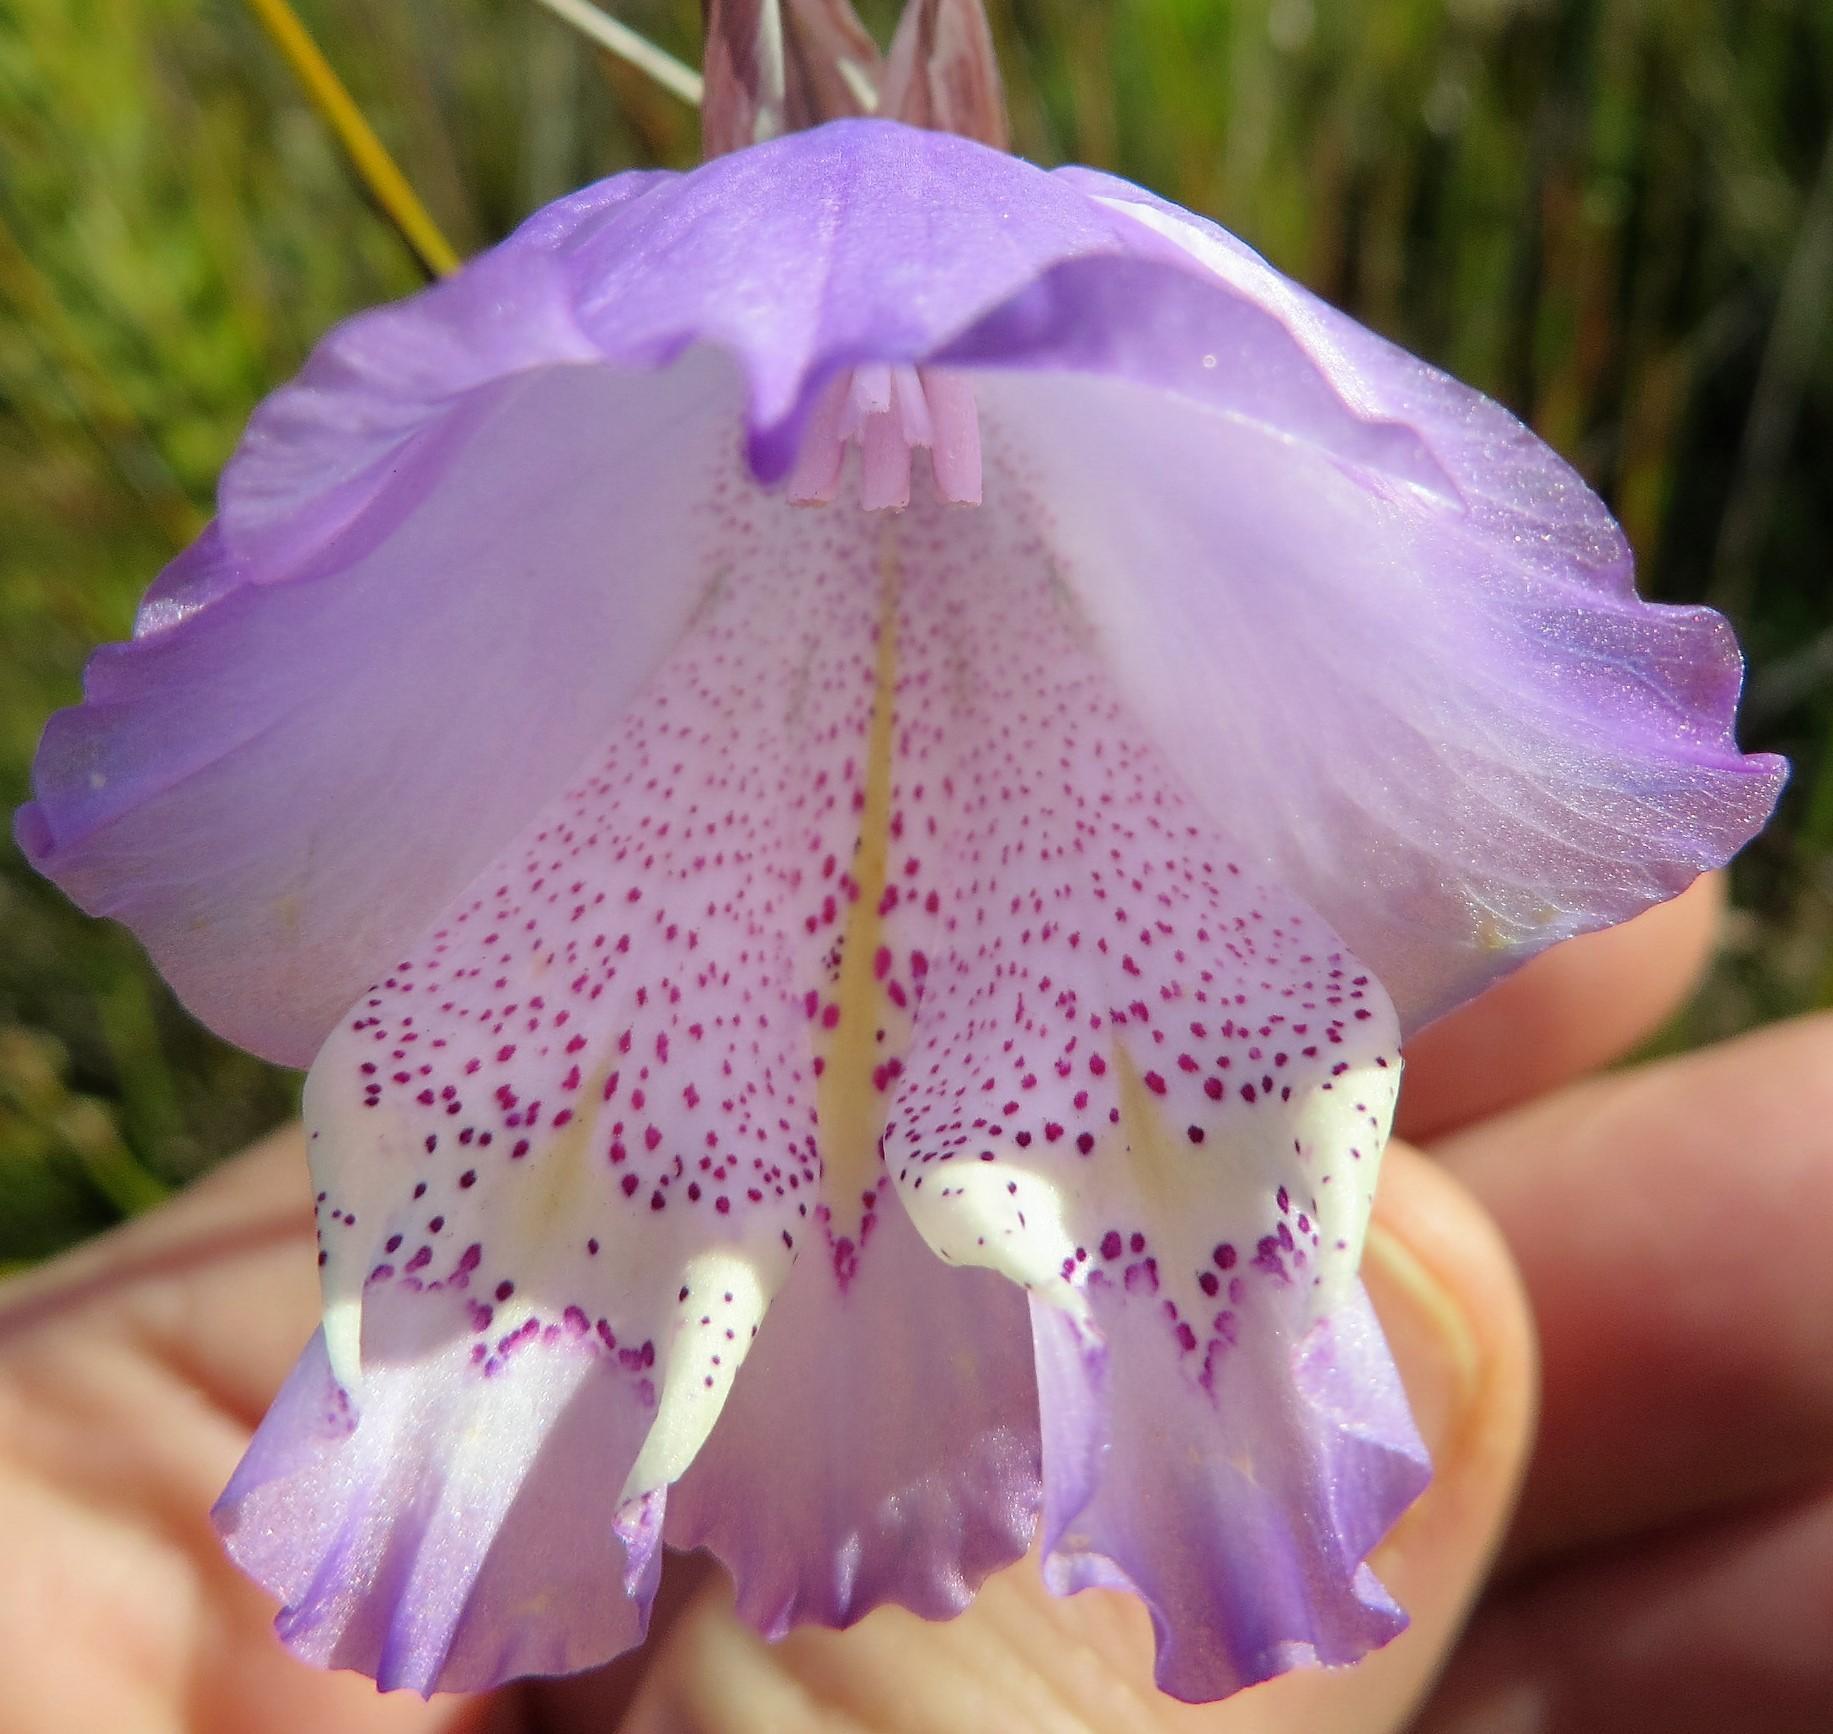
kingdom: Plantae
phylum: Tracheophyta
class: Liliopsida
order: Asparagales
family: Iridaceae
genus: Gladiolus
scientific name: Gladiolus bullatus
